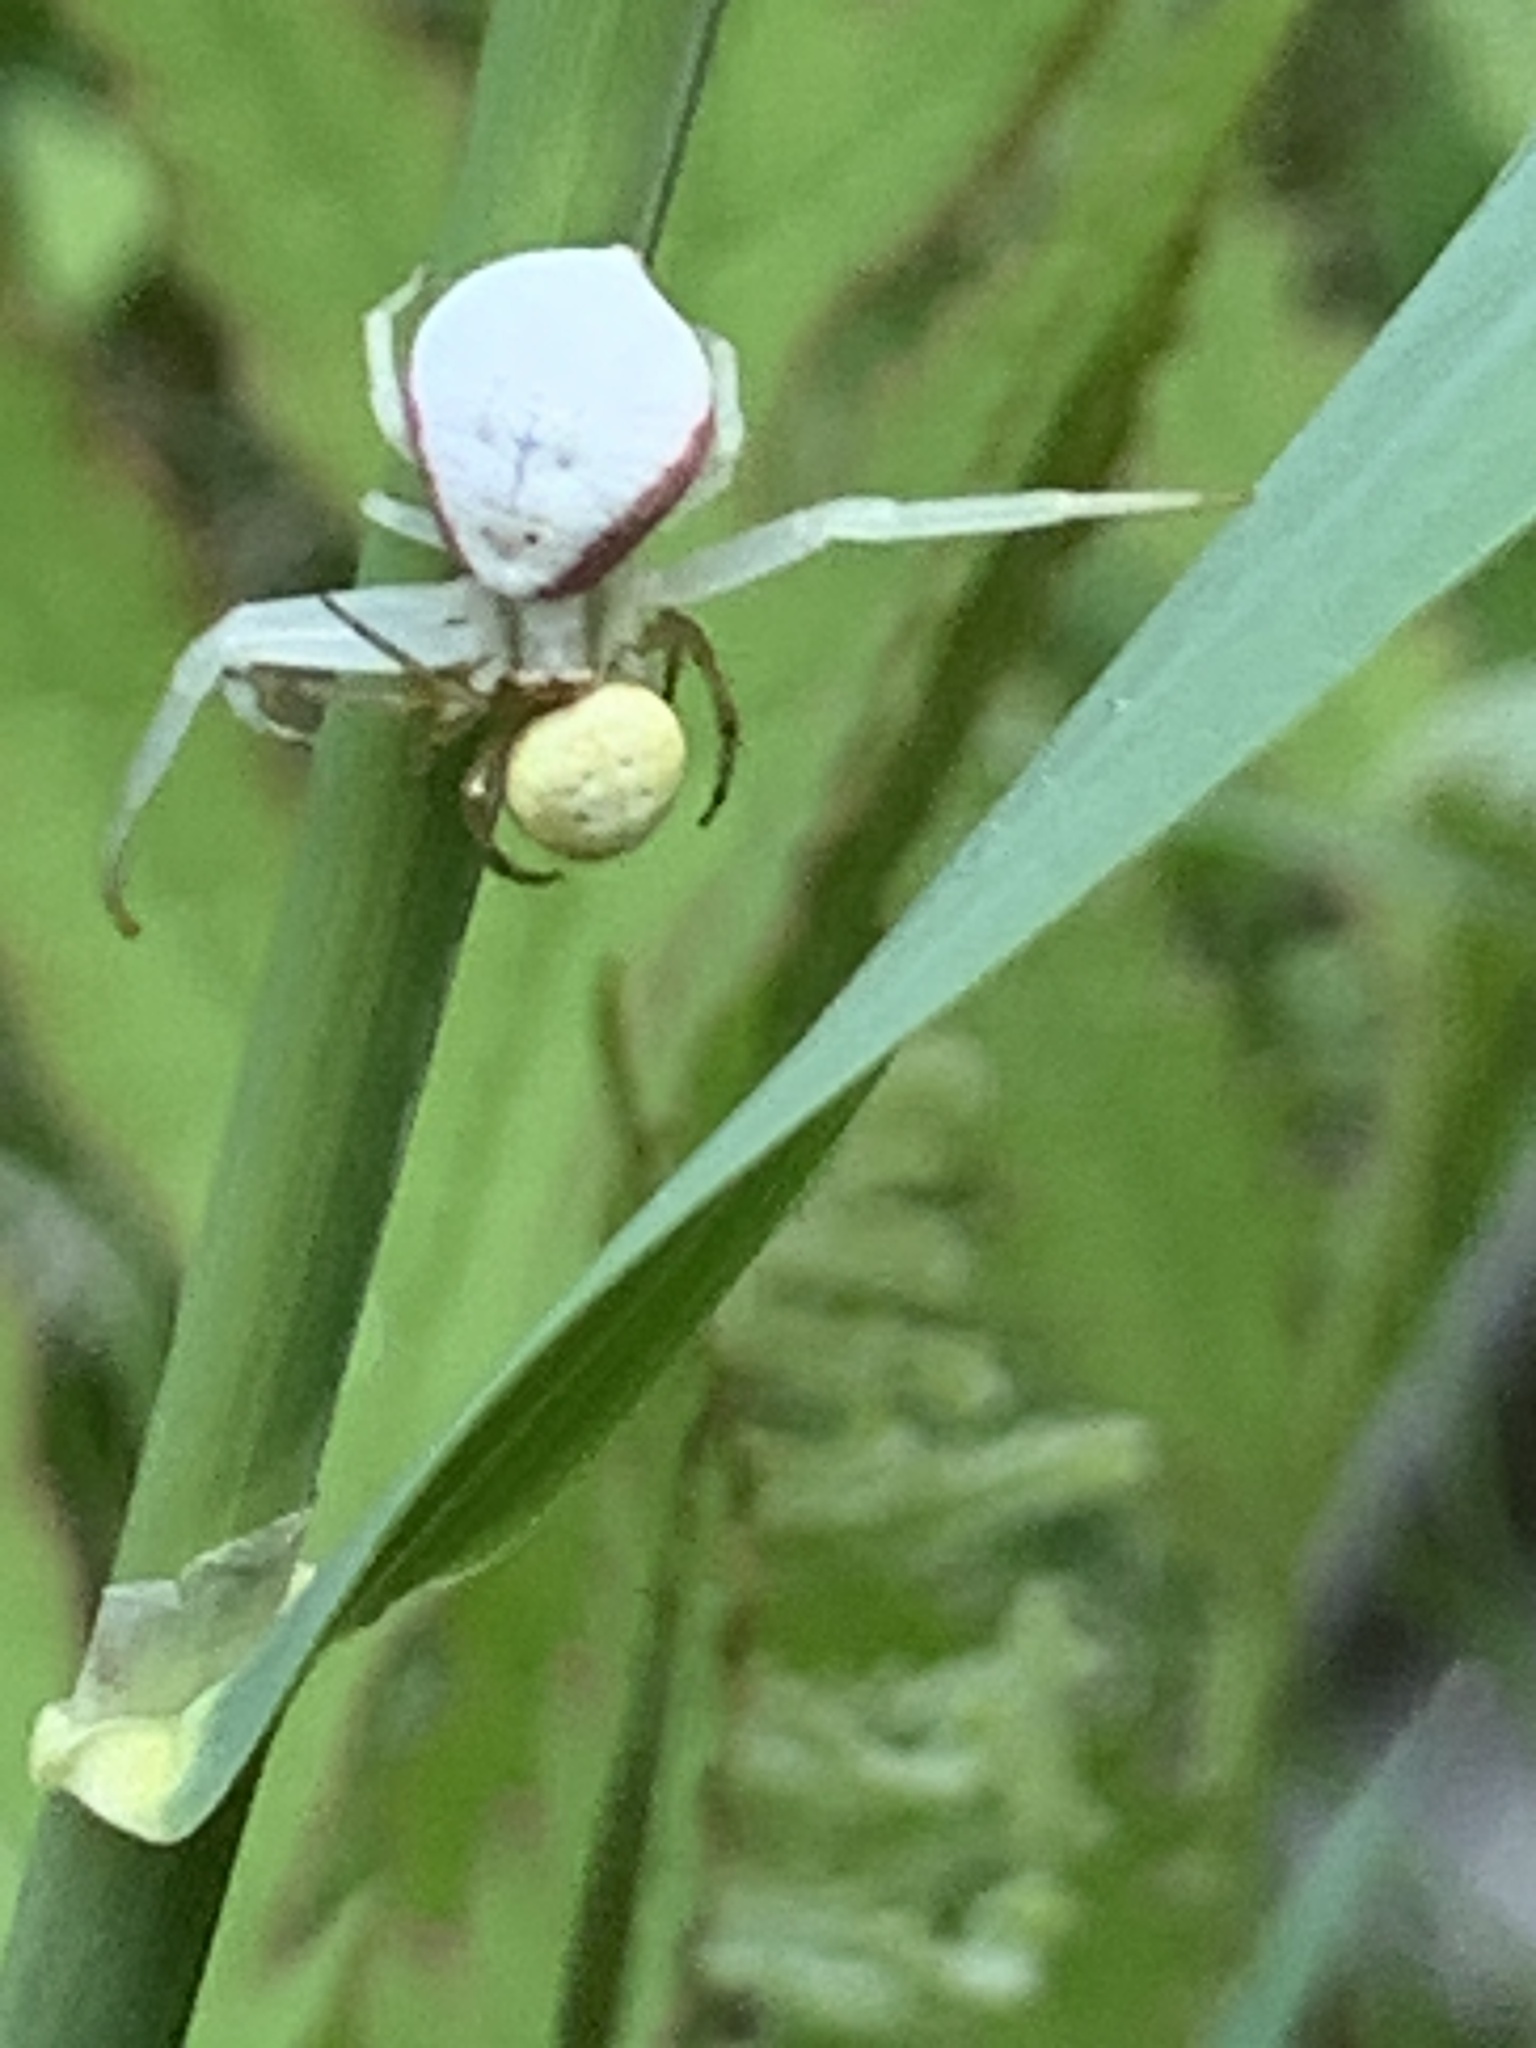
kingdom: Animalia
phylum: Arthropoda
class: Arachnida
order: Araneae
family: Thomisidae
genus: Misumena
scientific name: Misumena vatia
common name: Goldenrod crab spider
